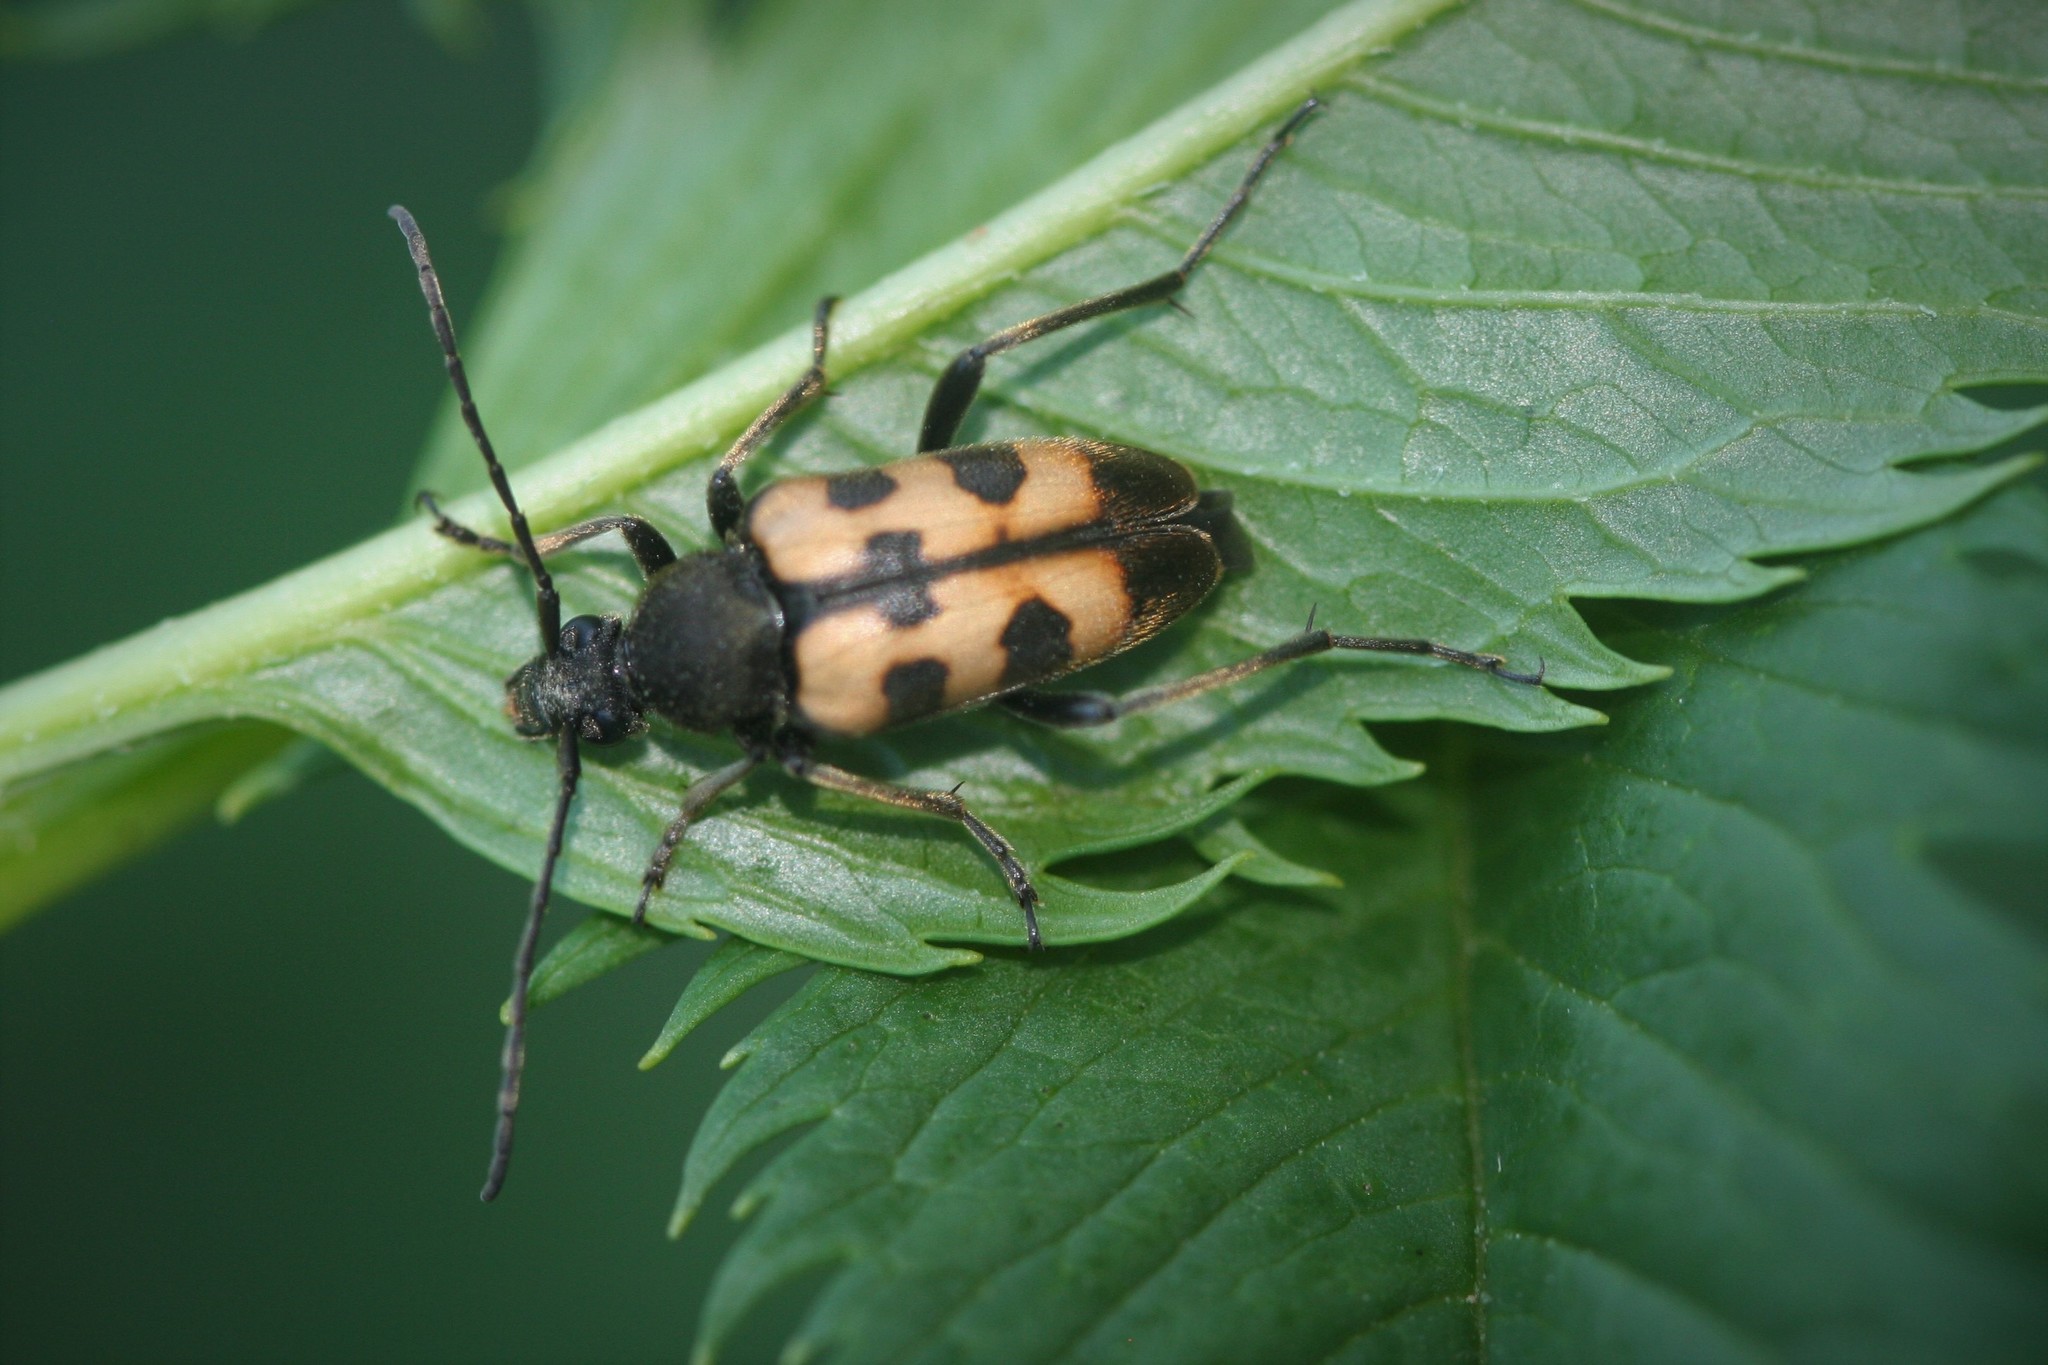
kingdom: Animalia
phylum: Arthropoda
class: Insecta
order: Coleoptera
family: Cerambycidae
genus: Pachytodes
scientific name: Pachytodes
